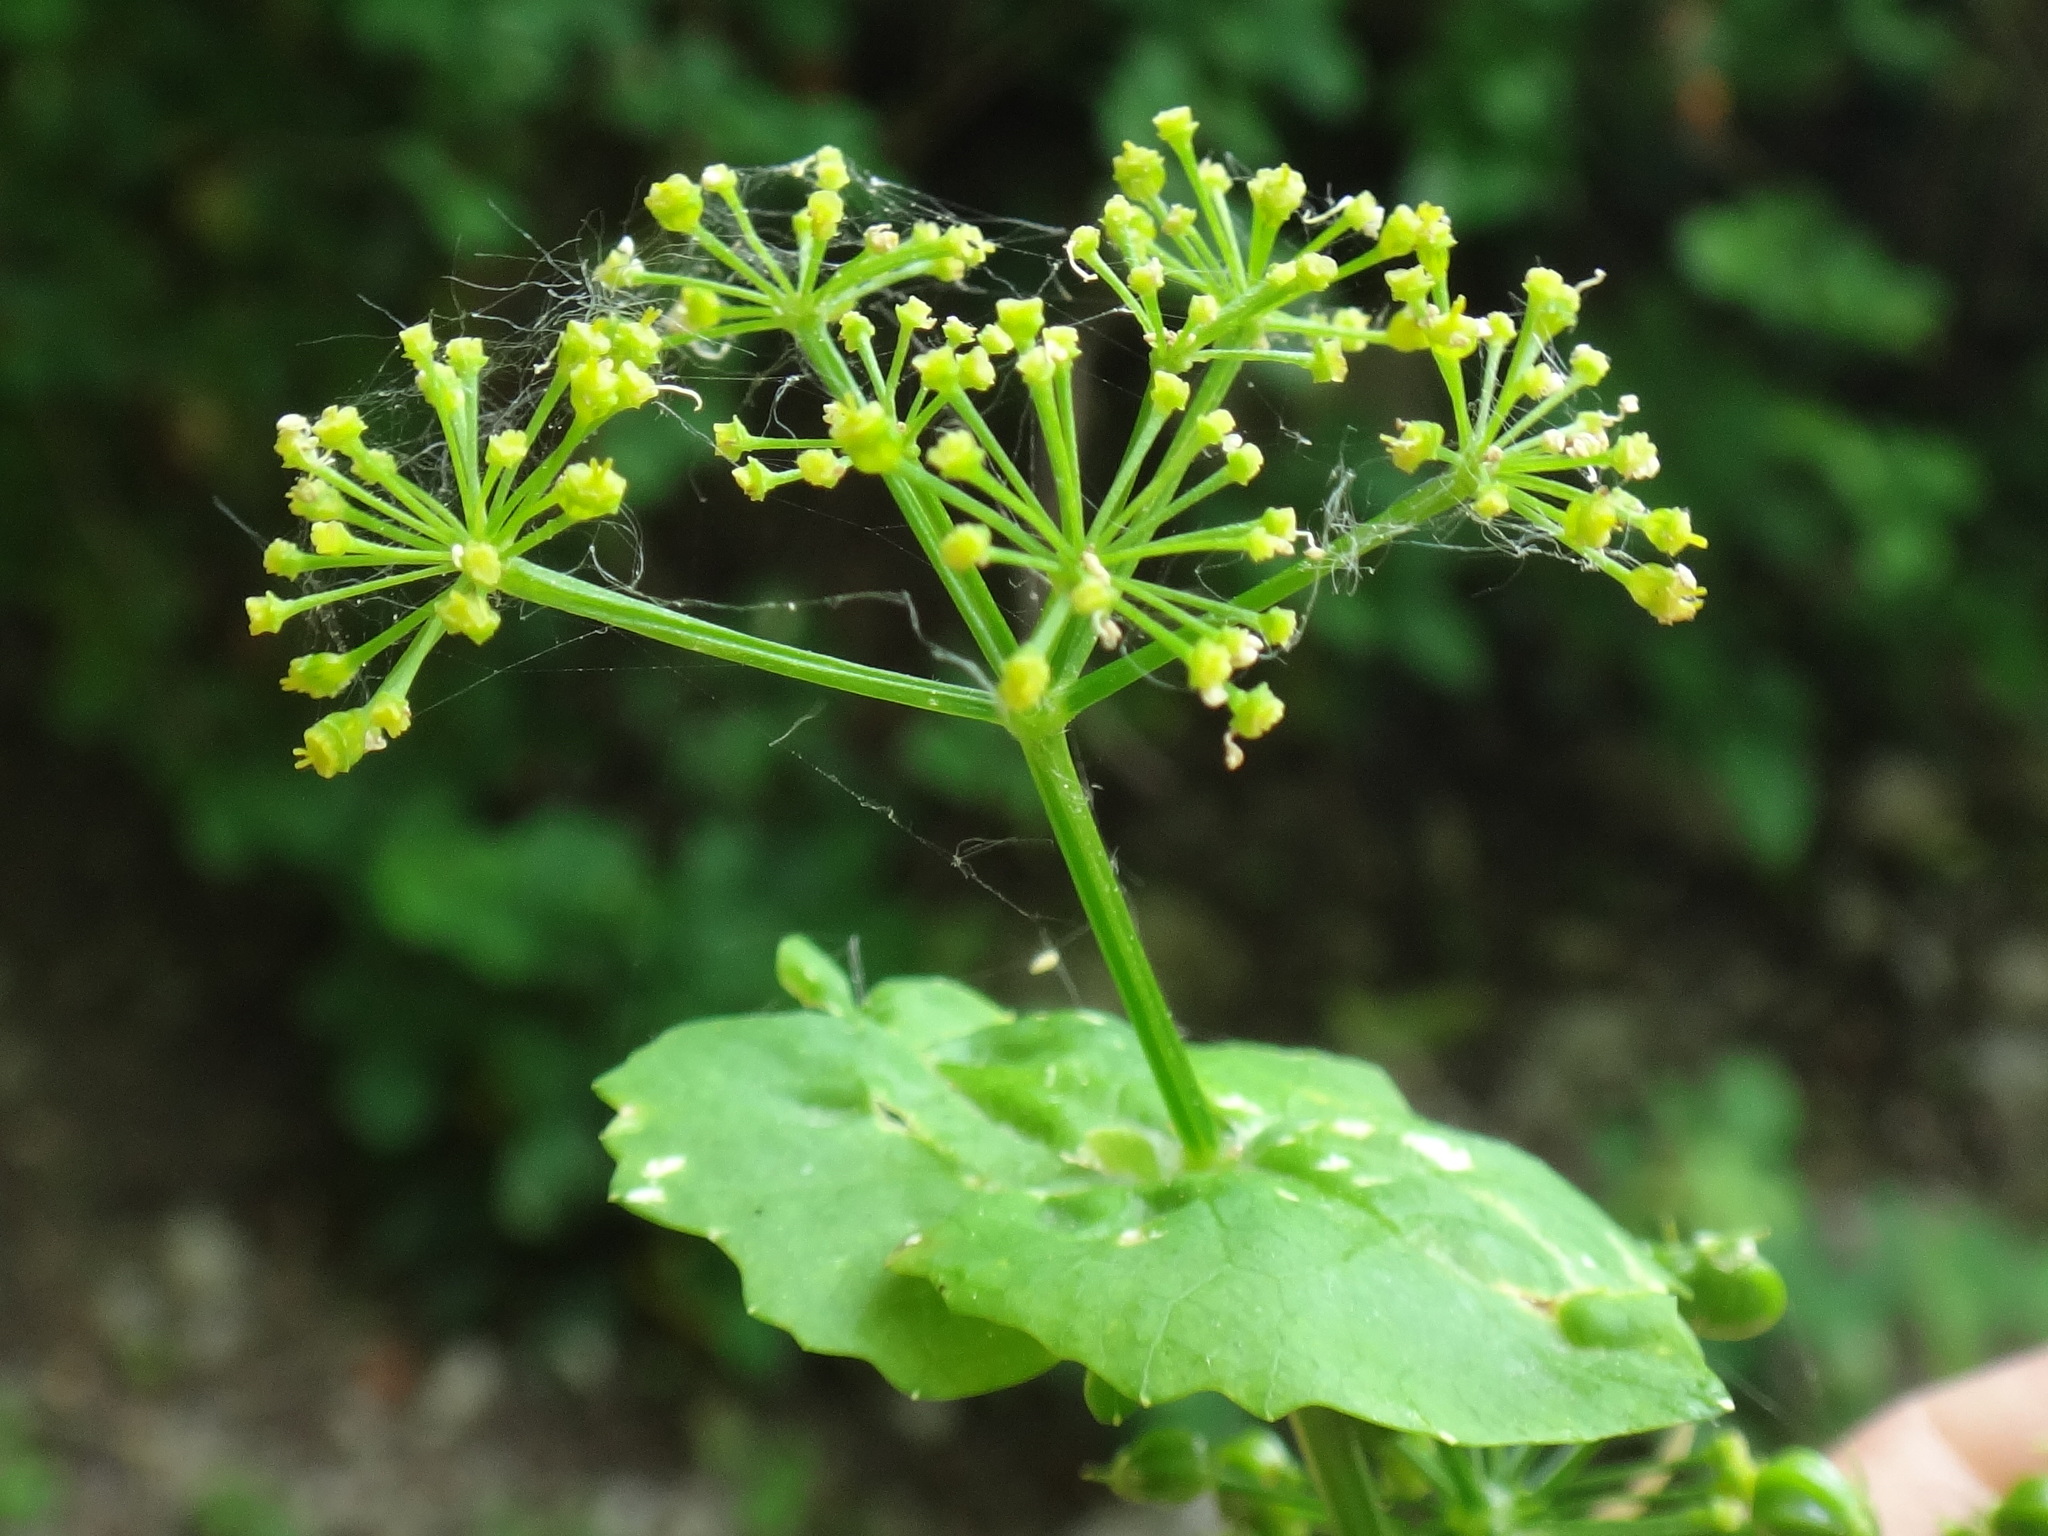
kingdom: Plantae
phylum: Tracheophyta
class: Magnoliopsida
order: Apiales
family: Apiaceae
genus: Smyrnium
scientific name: Smyrnium perfoliatum
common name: Perfoliate alexanders
